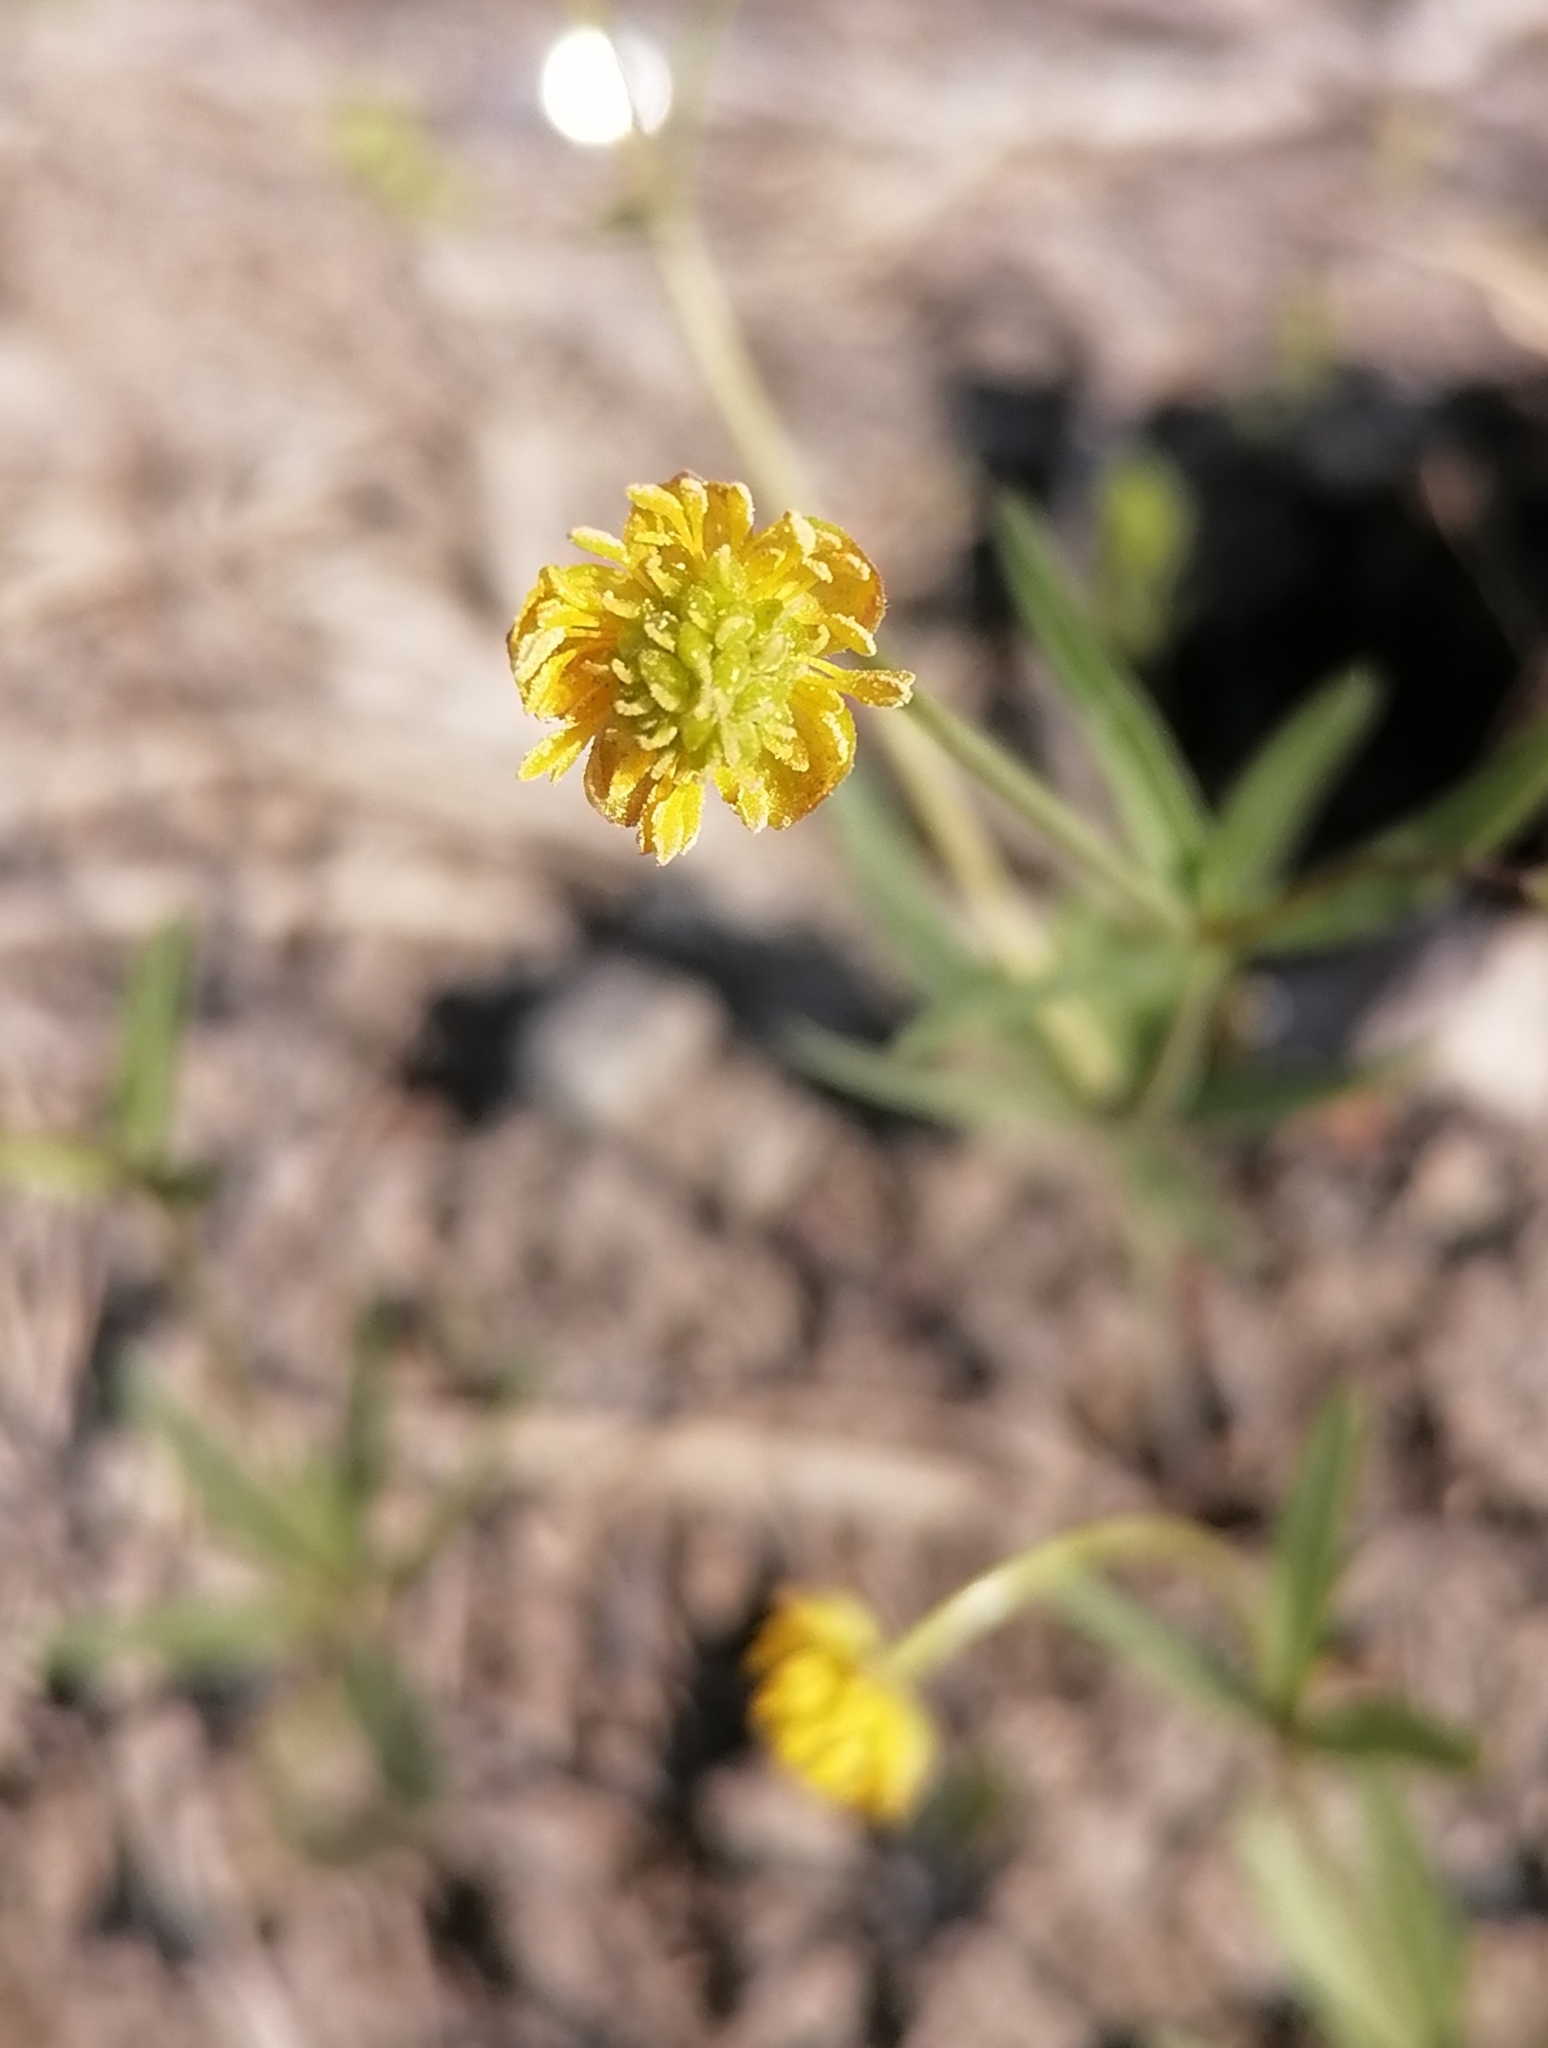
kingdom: Plantae
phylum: Tracheophyta
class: Magnoliopsida
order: Ranunculales
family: Ranunculaceae
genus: Ranunculus
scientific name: Ranunculus monophyllus
